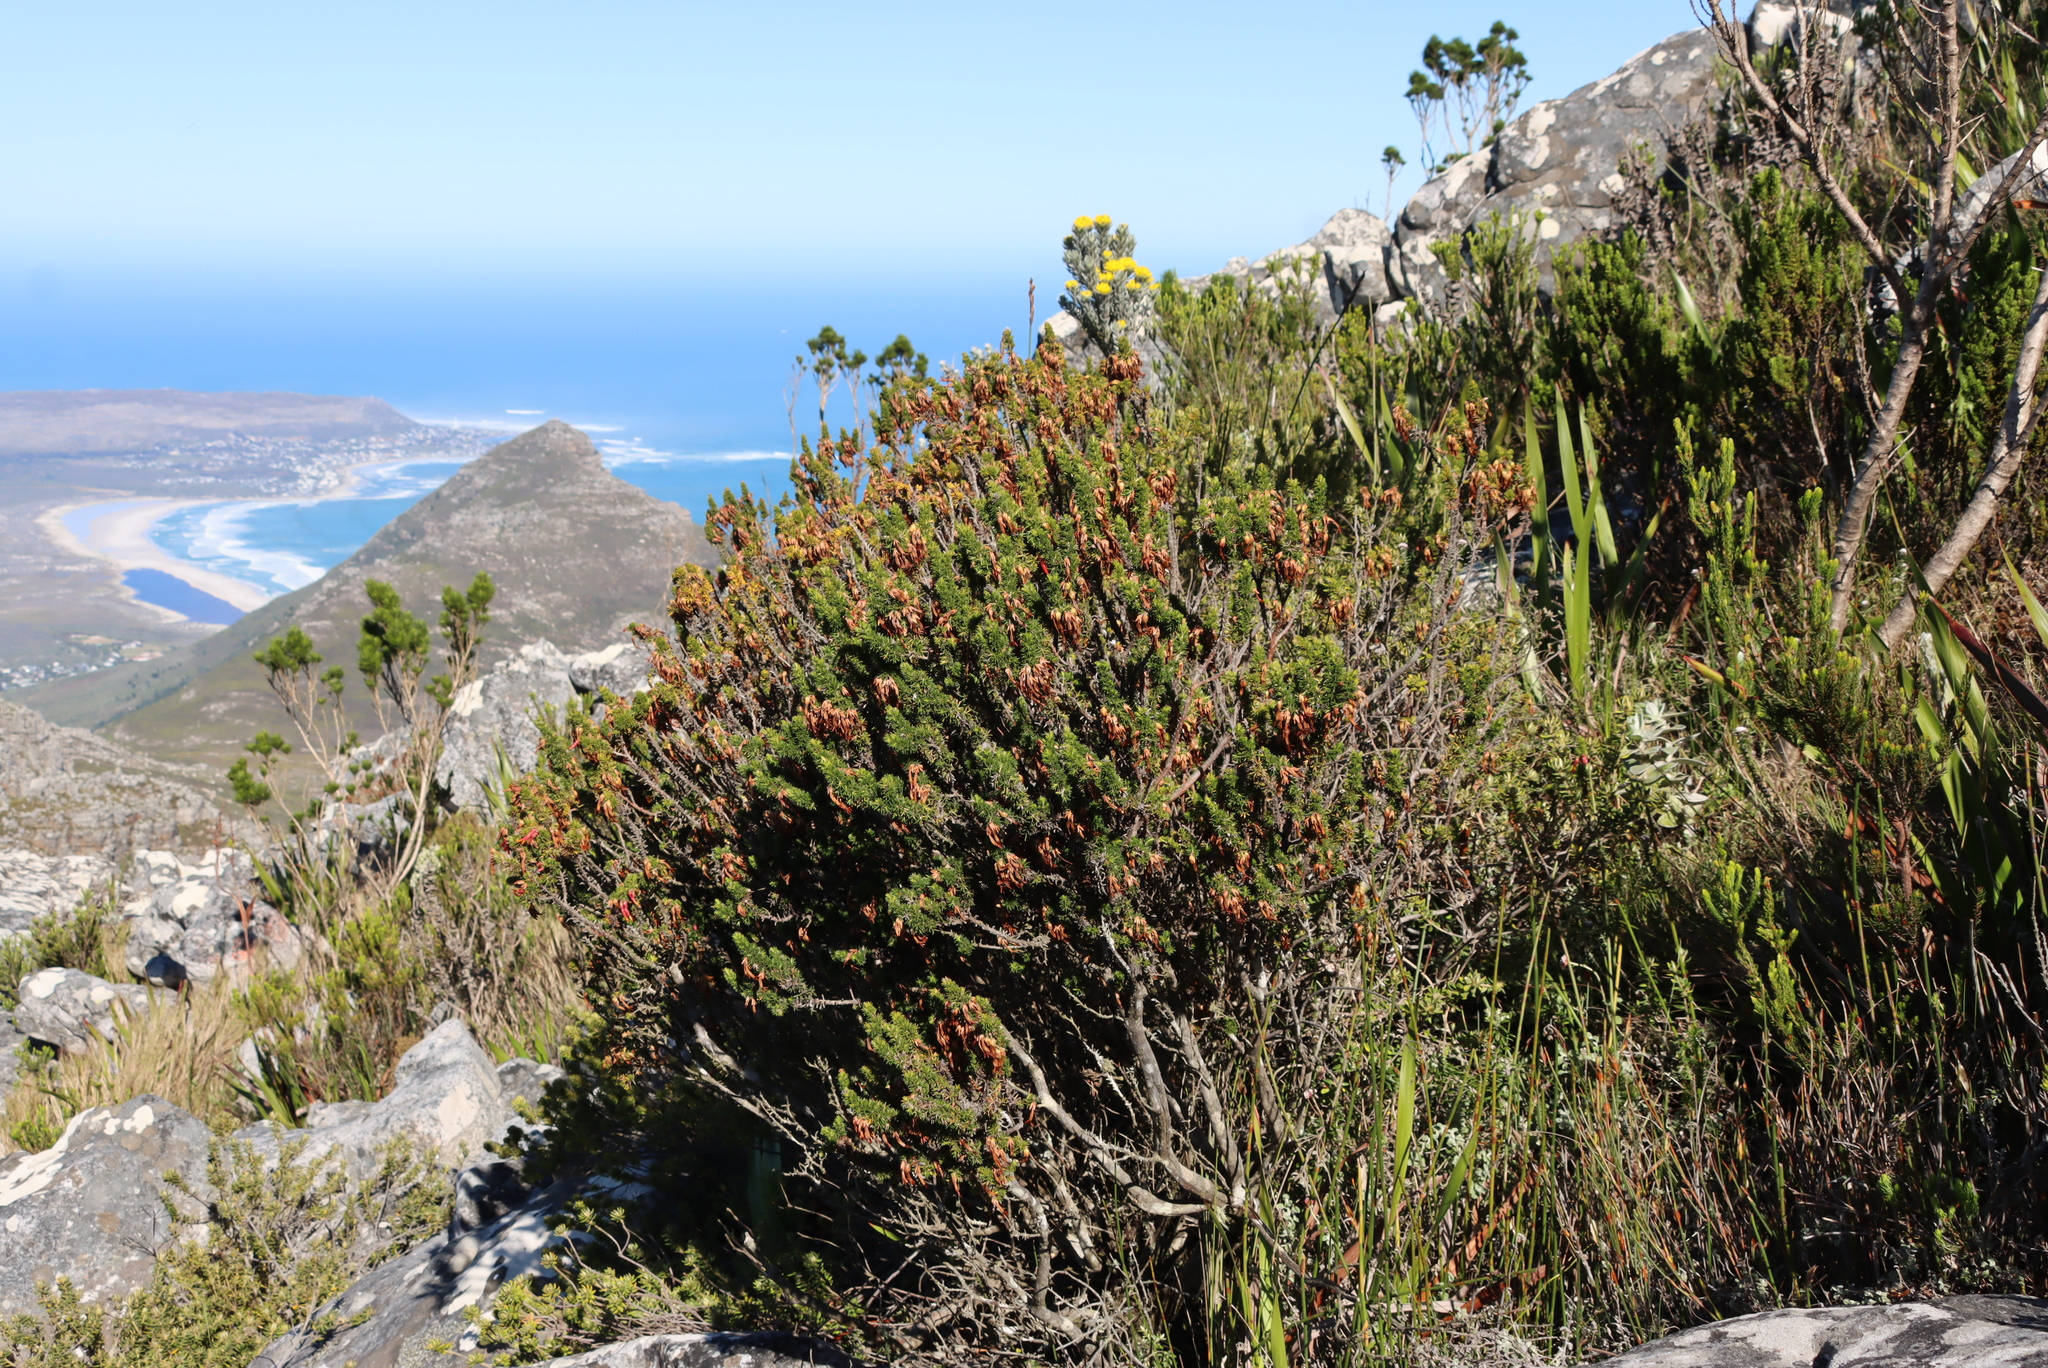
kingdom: Plantae
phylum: Tracheophyta
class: Magnoliopsida
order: Ericales
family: Ericaceae
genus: Erica
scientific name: Erica coccinea
